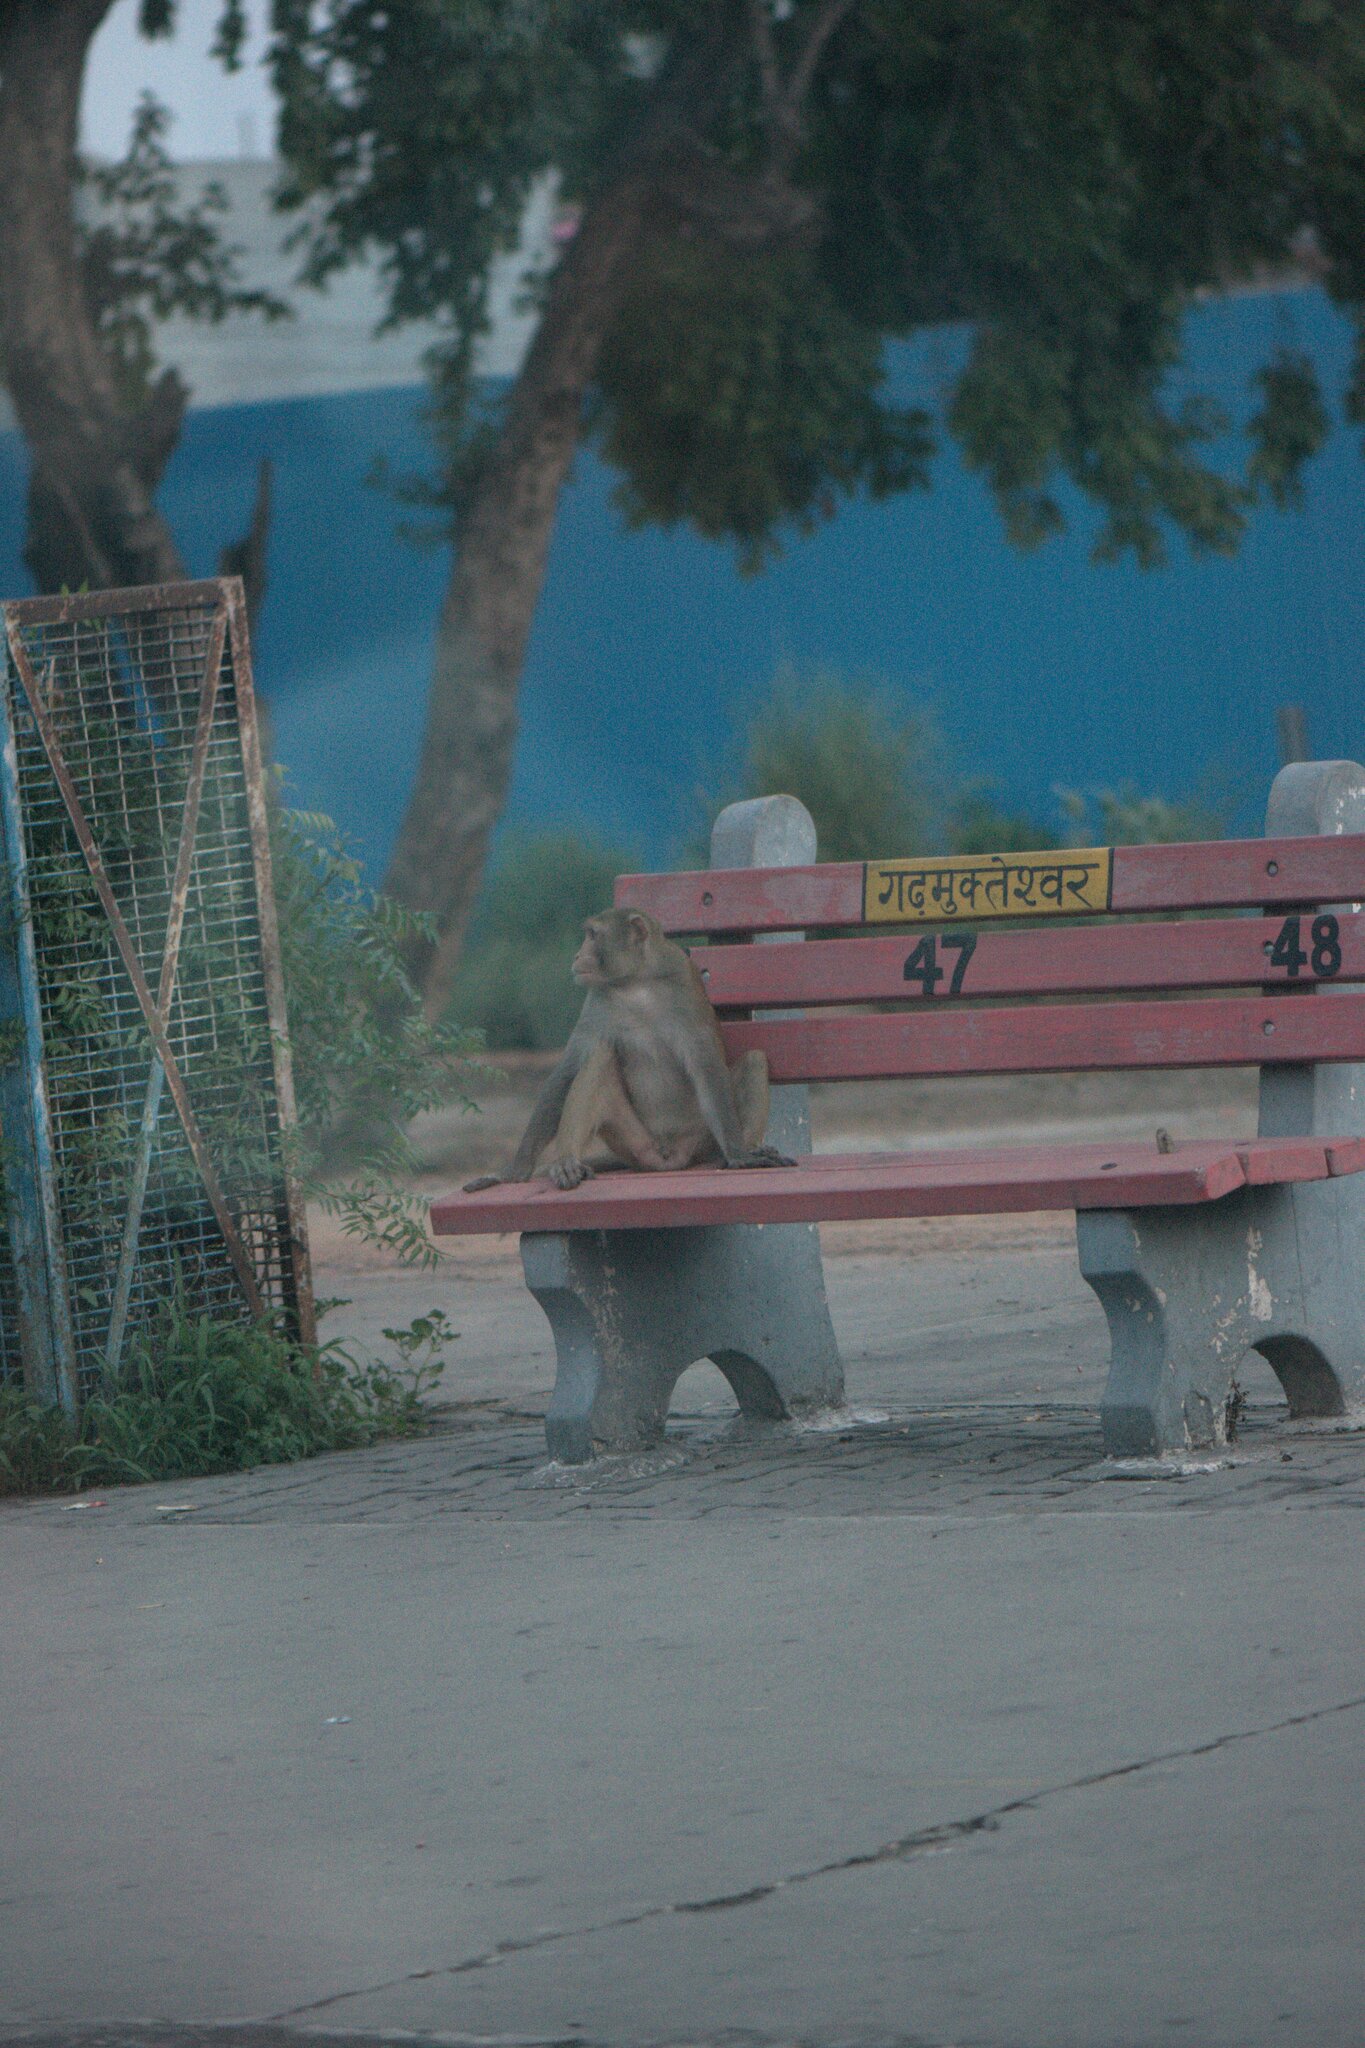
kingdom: Animalia
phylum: Chordata
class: Mammalia
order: Primates
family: Cercopithecidae
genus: Macaca
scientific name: Macaca mulatta
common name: Rhesus monkey
